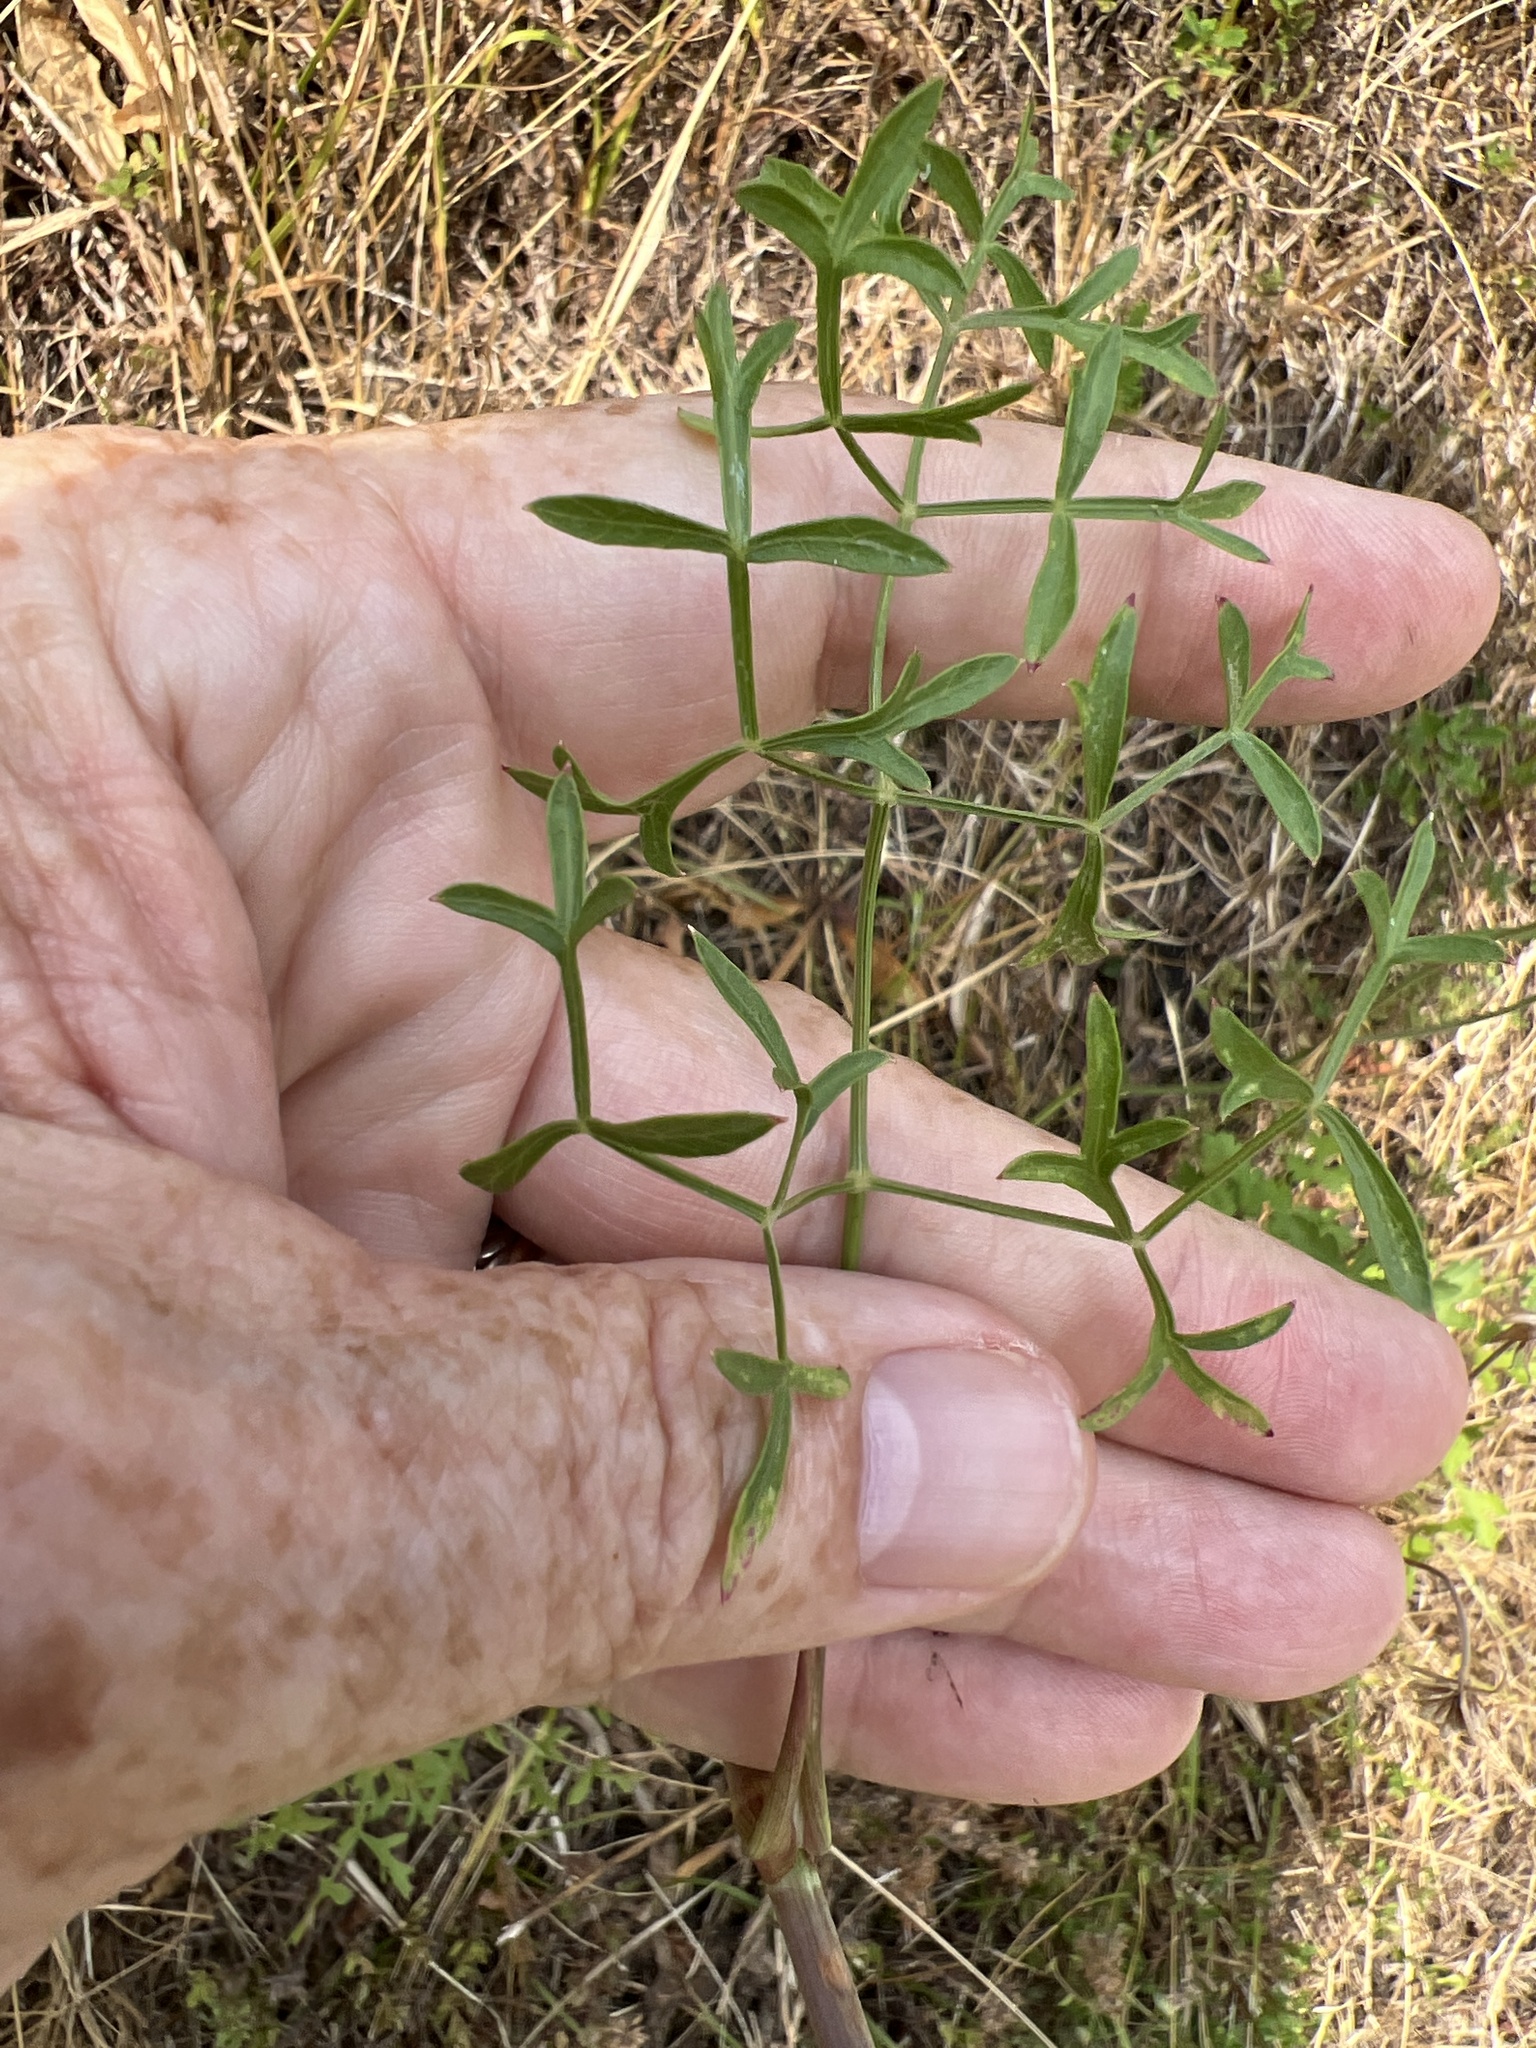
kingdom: Plantae
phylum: Tracheophyta
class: Magnoliopsida
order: Apiales
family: Apiaceae
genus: Oreoselinum
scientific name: Oreoselinum nigrum
